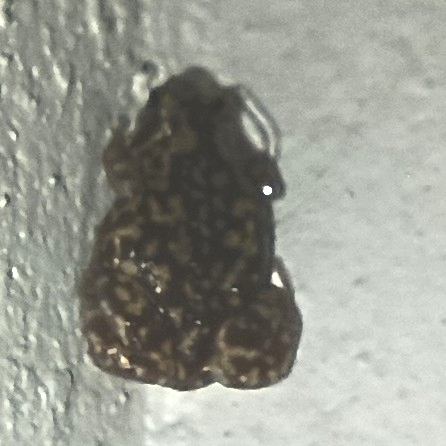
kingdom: Animalia
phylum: Chordata
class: Amphibia
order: Anura
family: Microhylidae
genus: Uperodon
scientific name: Uperodon variegatus
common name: Eluru dot frog
